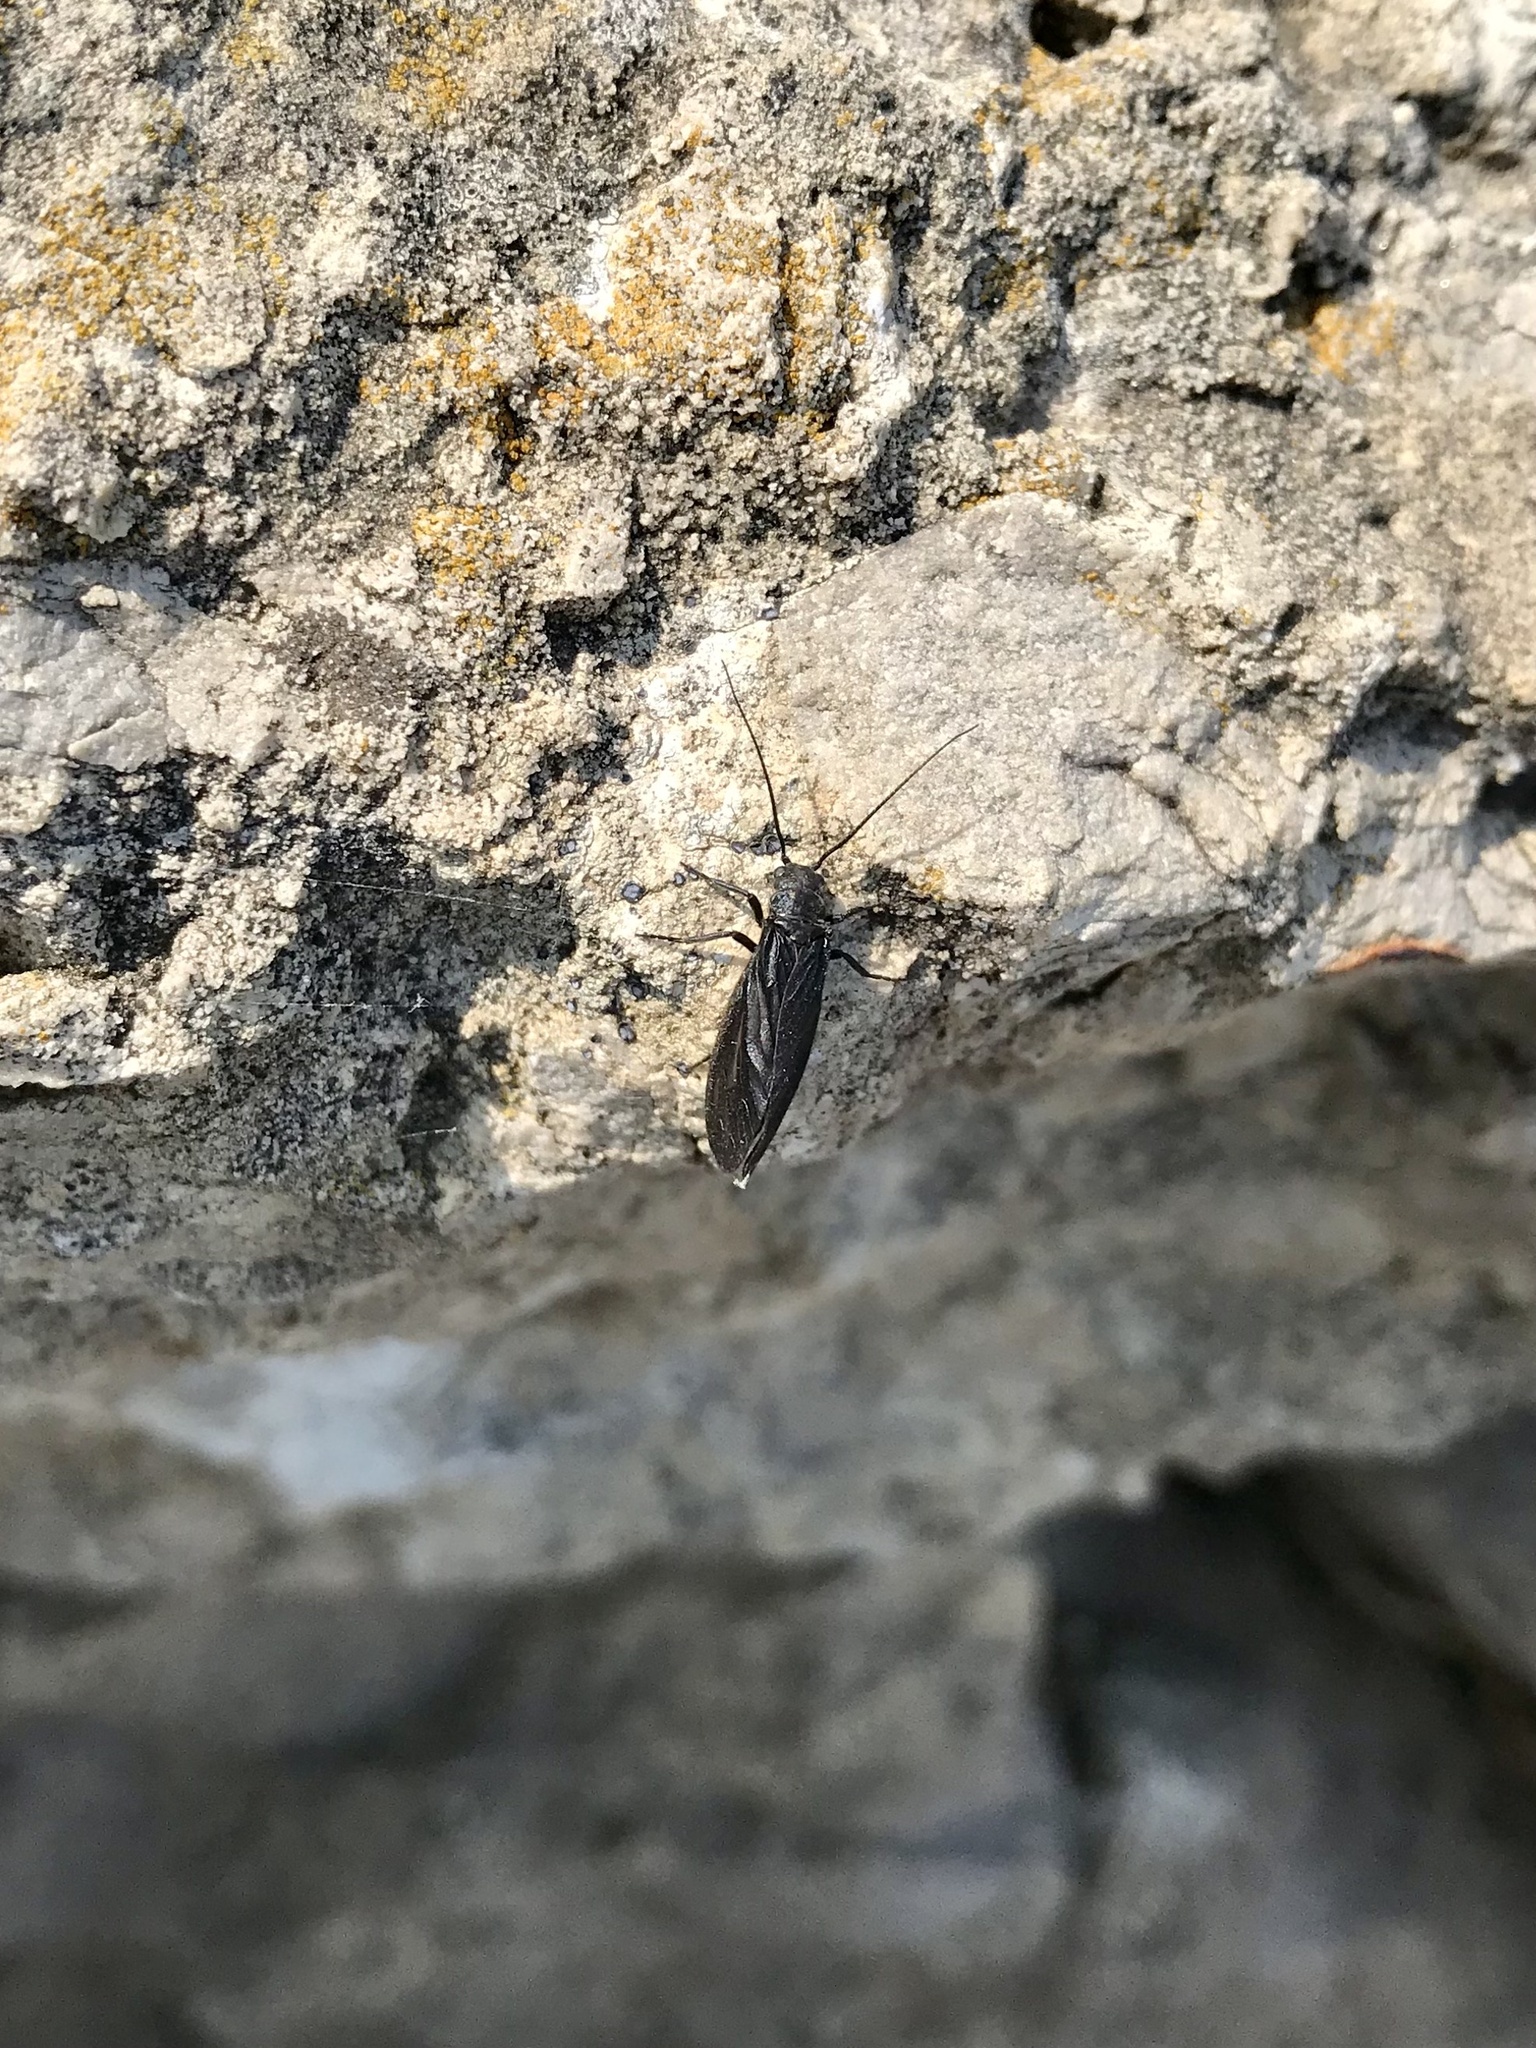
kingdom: Animalia
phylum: Arthropoda
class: Insecta
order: Megaloptera
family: Sialidae
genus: Sialis
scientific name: Sialis
